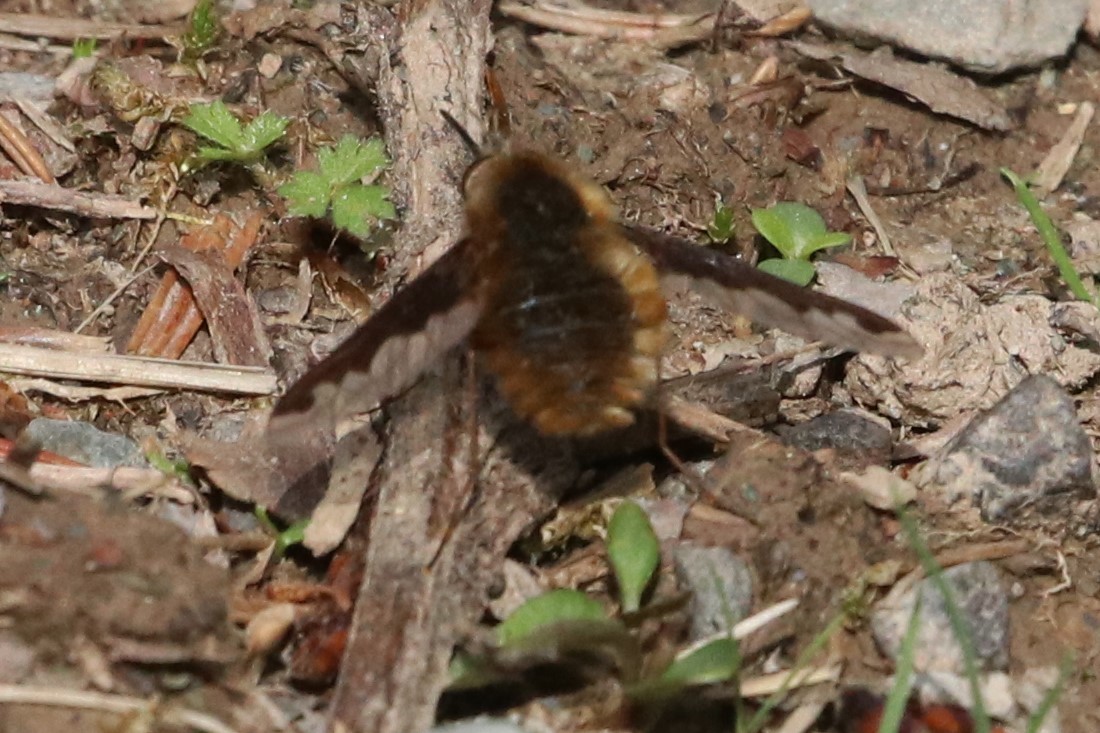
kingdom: Animalia
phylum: Arthropoda
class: Insecta
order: Diptera
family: Bombyliidae
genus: Bombylius
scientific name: Bombylius major
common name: Bee fly
